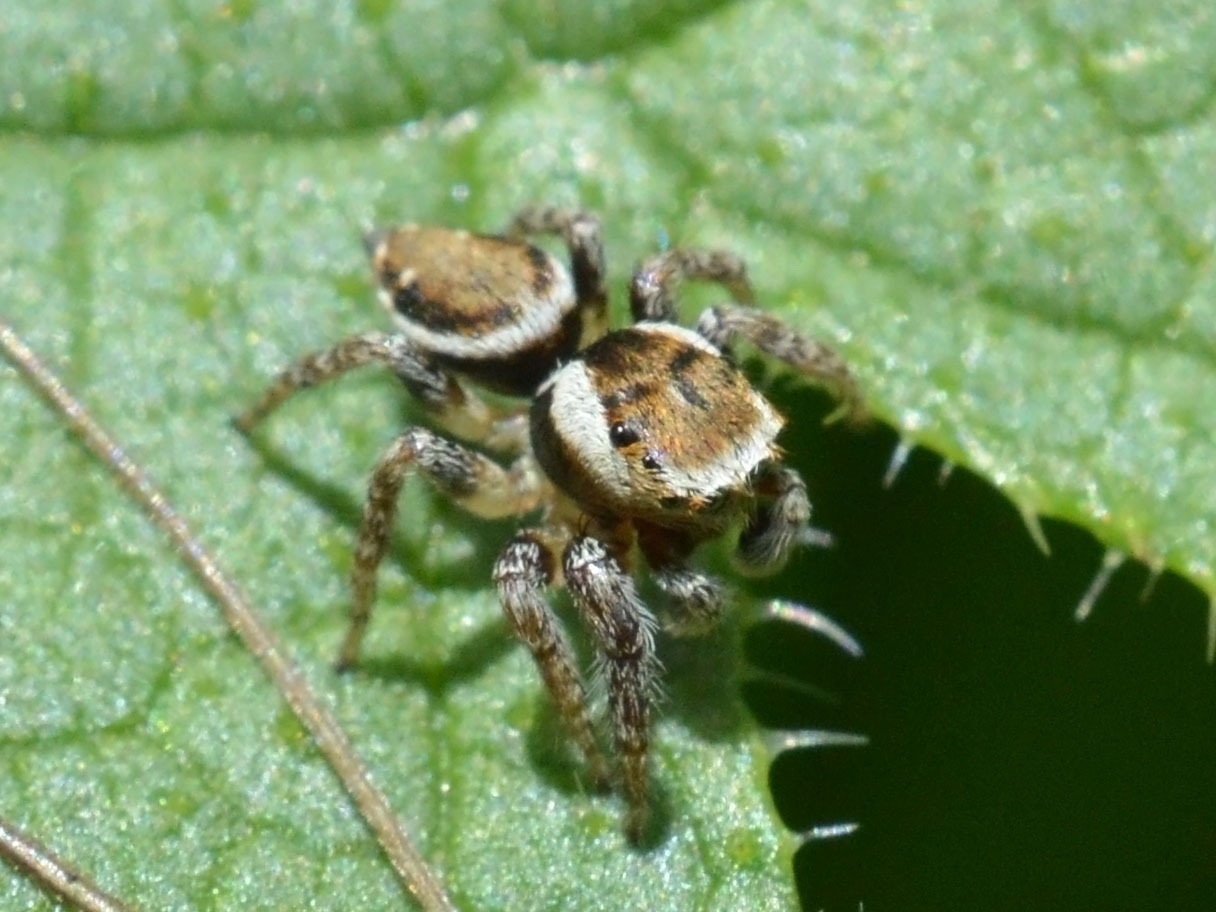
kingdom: Animalia
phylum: Arthropoda
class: Arachnida
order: Araneae
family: Salticidae
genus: Evarcha
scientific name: Evarcha falcata
